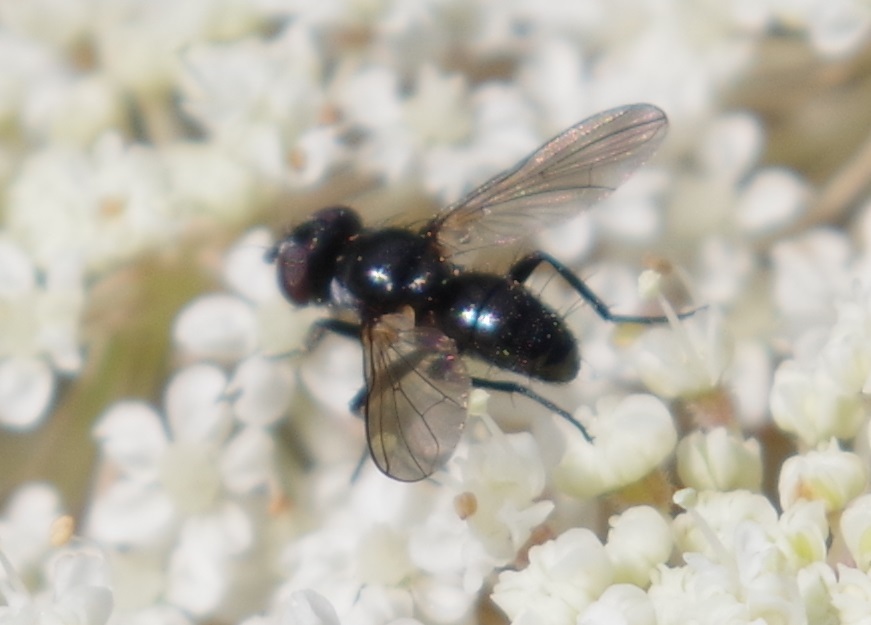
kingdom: Animalia
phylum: Arthropoda
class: Insecta
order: Diptera
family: Tachinidae
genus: Phania
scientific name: Phania funesta
